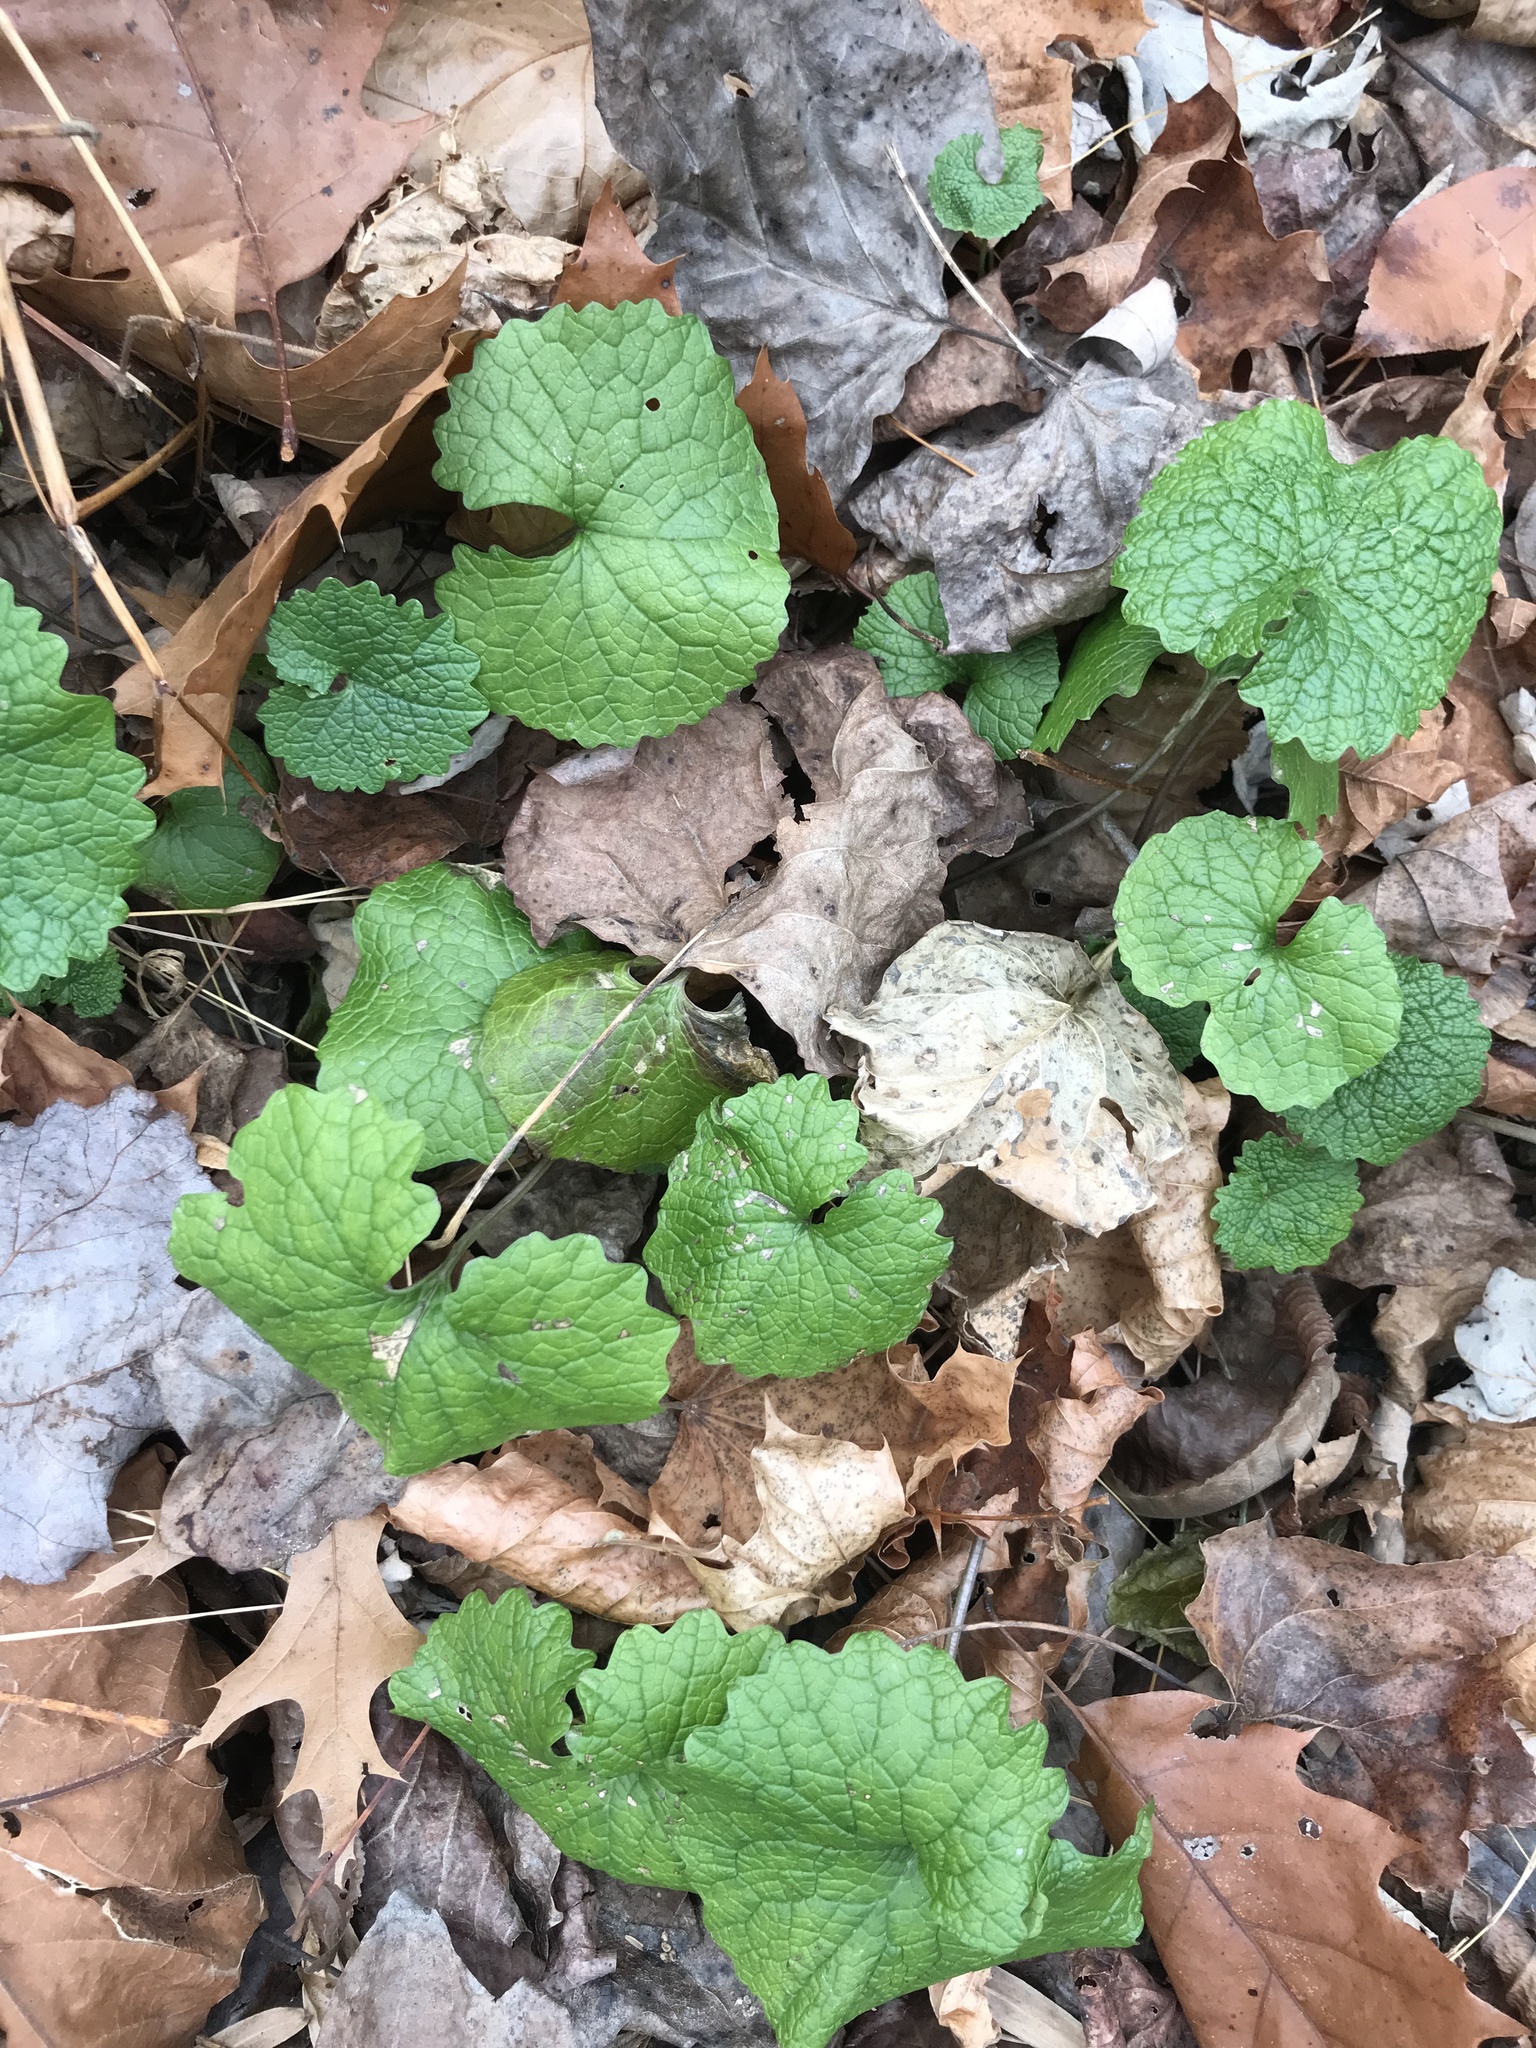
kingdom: Plantae
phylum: Tracheophyta
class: Magnoliopsida
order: Brassicales
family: Brassicaceae
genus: Alliaria
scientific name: Alliaria petiolata
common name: Garlic mustard
